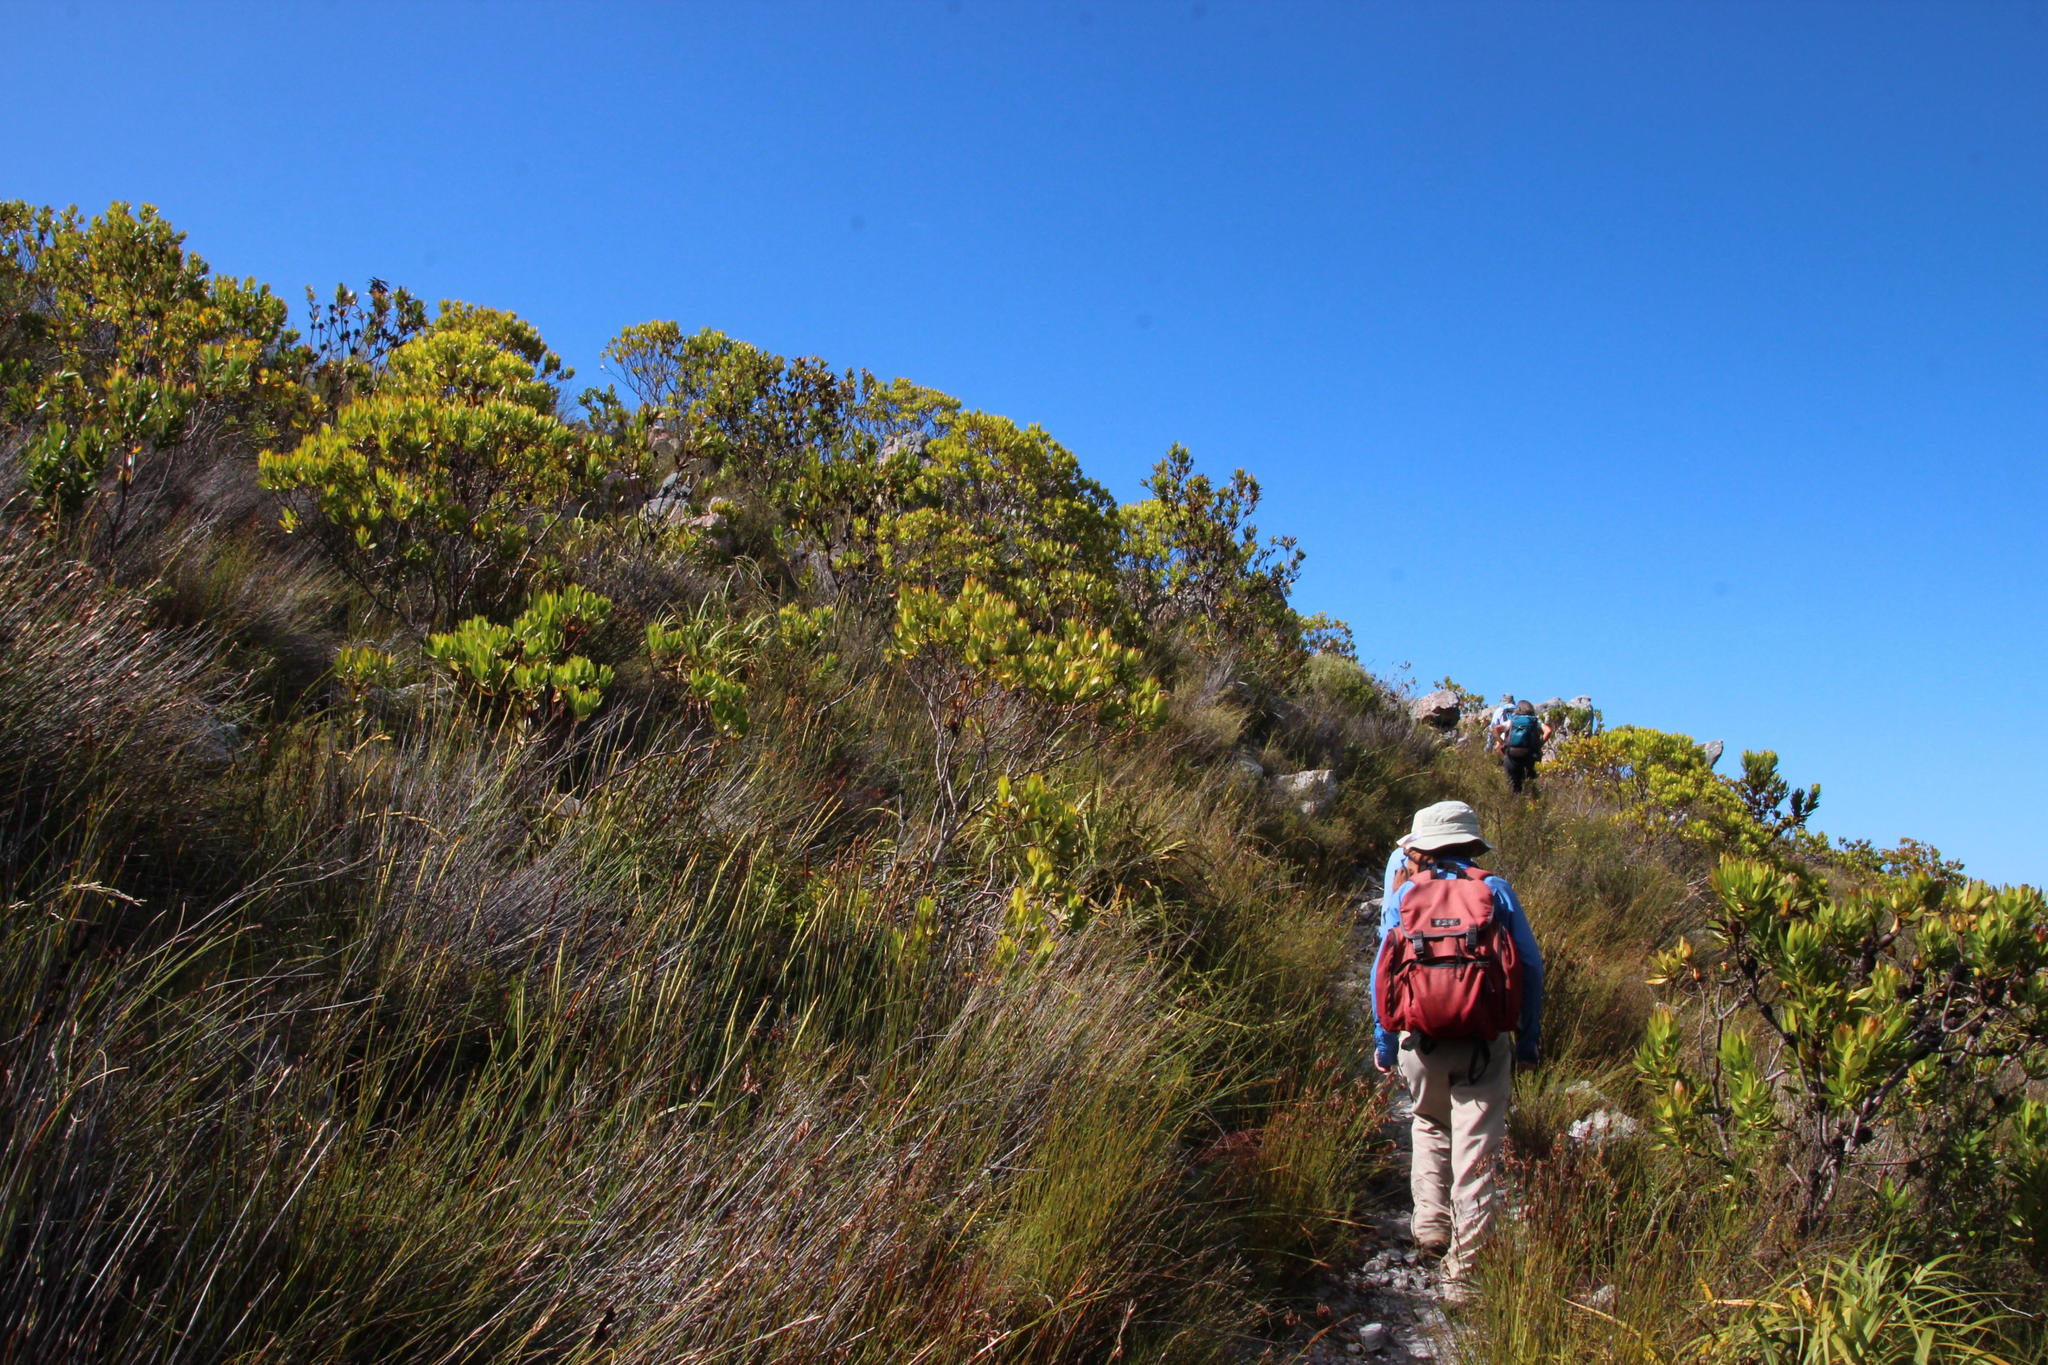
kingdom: Plantae
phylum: Tracheophyta
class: Magnoliopsida
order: Proteales
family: Proteaceae
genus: Leucadendron
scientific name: Leucadendron gandogeri
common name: Broad-leaf conebush
